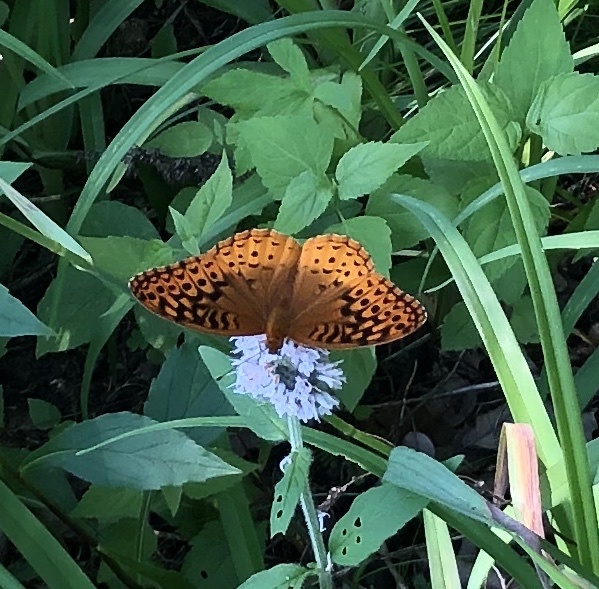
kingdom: Animalia
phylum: Arthropoda
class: Insecta
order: Lepidoptera
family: Nymphalidae
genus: Speyeria
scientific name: Speyeria cybele
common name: Great spangled fritillary
